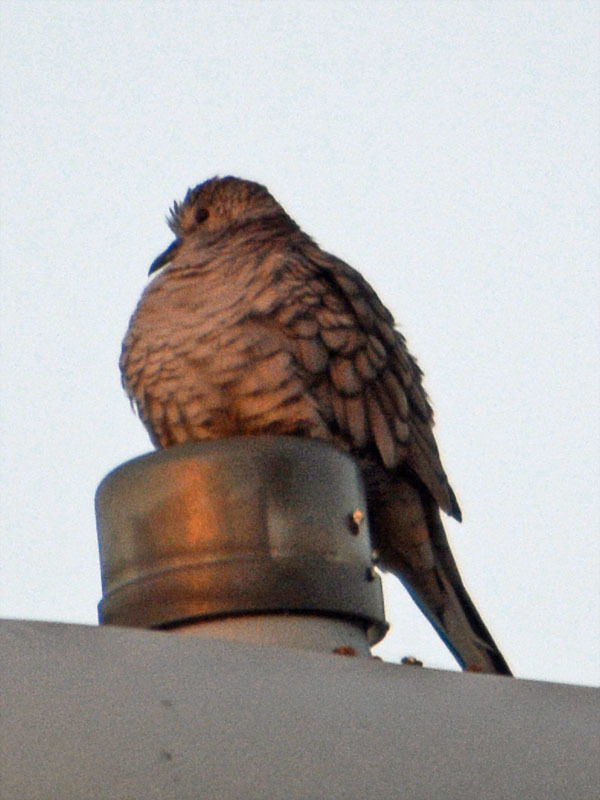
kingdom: Animalia
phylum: Chordata
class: Aves
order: Columbiformes
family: Columbidae
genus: Columbina
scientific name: Columbina inca
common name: Inca dove
